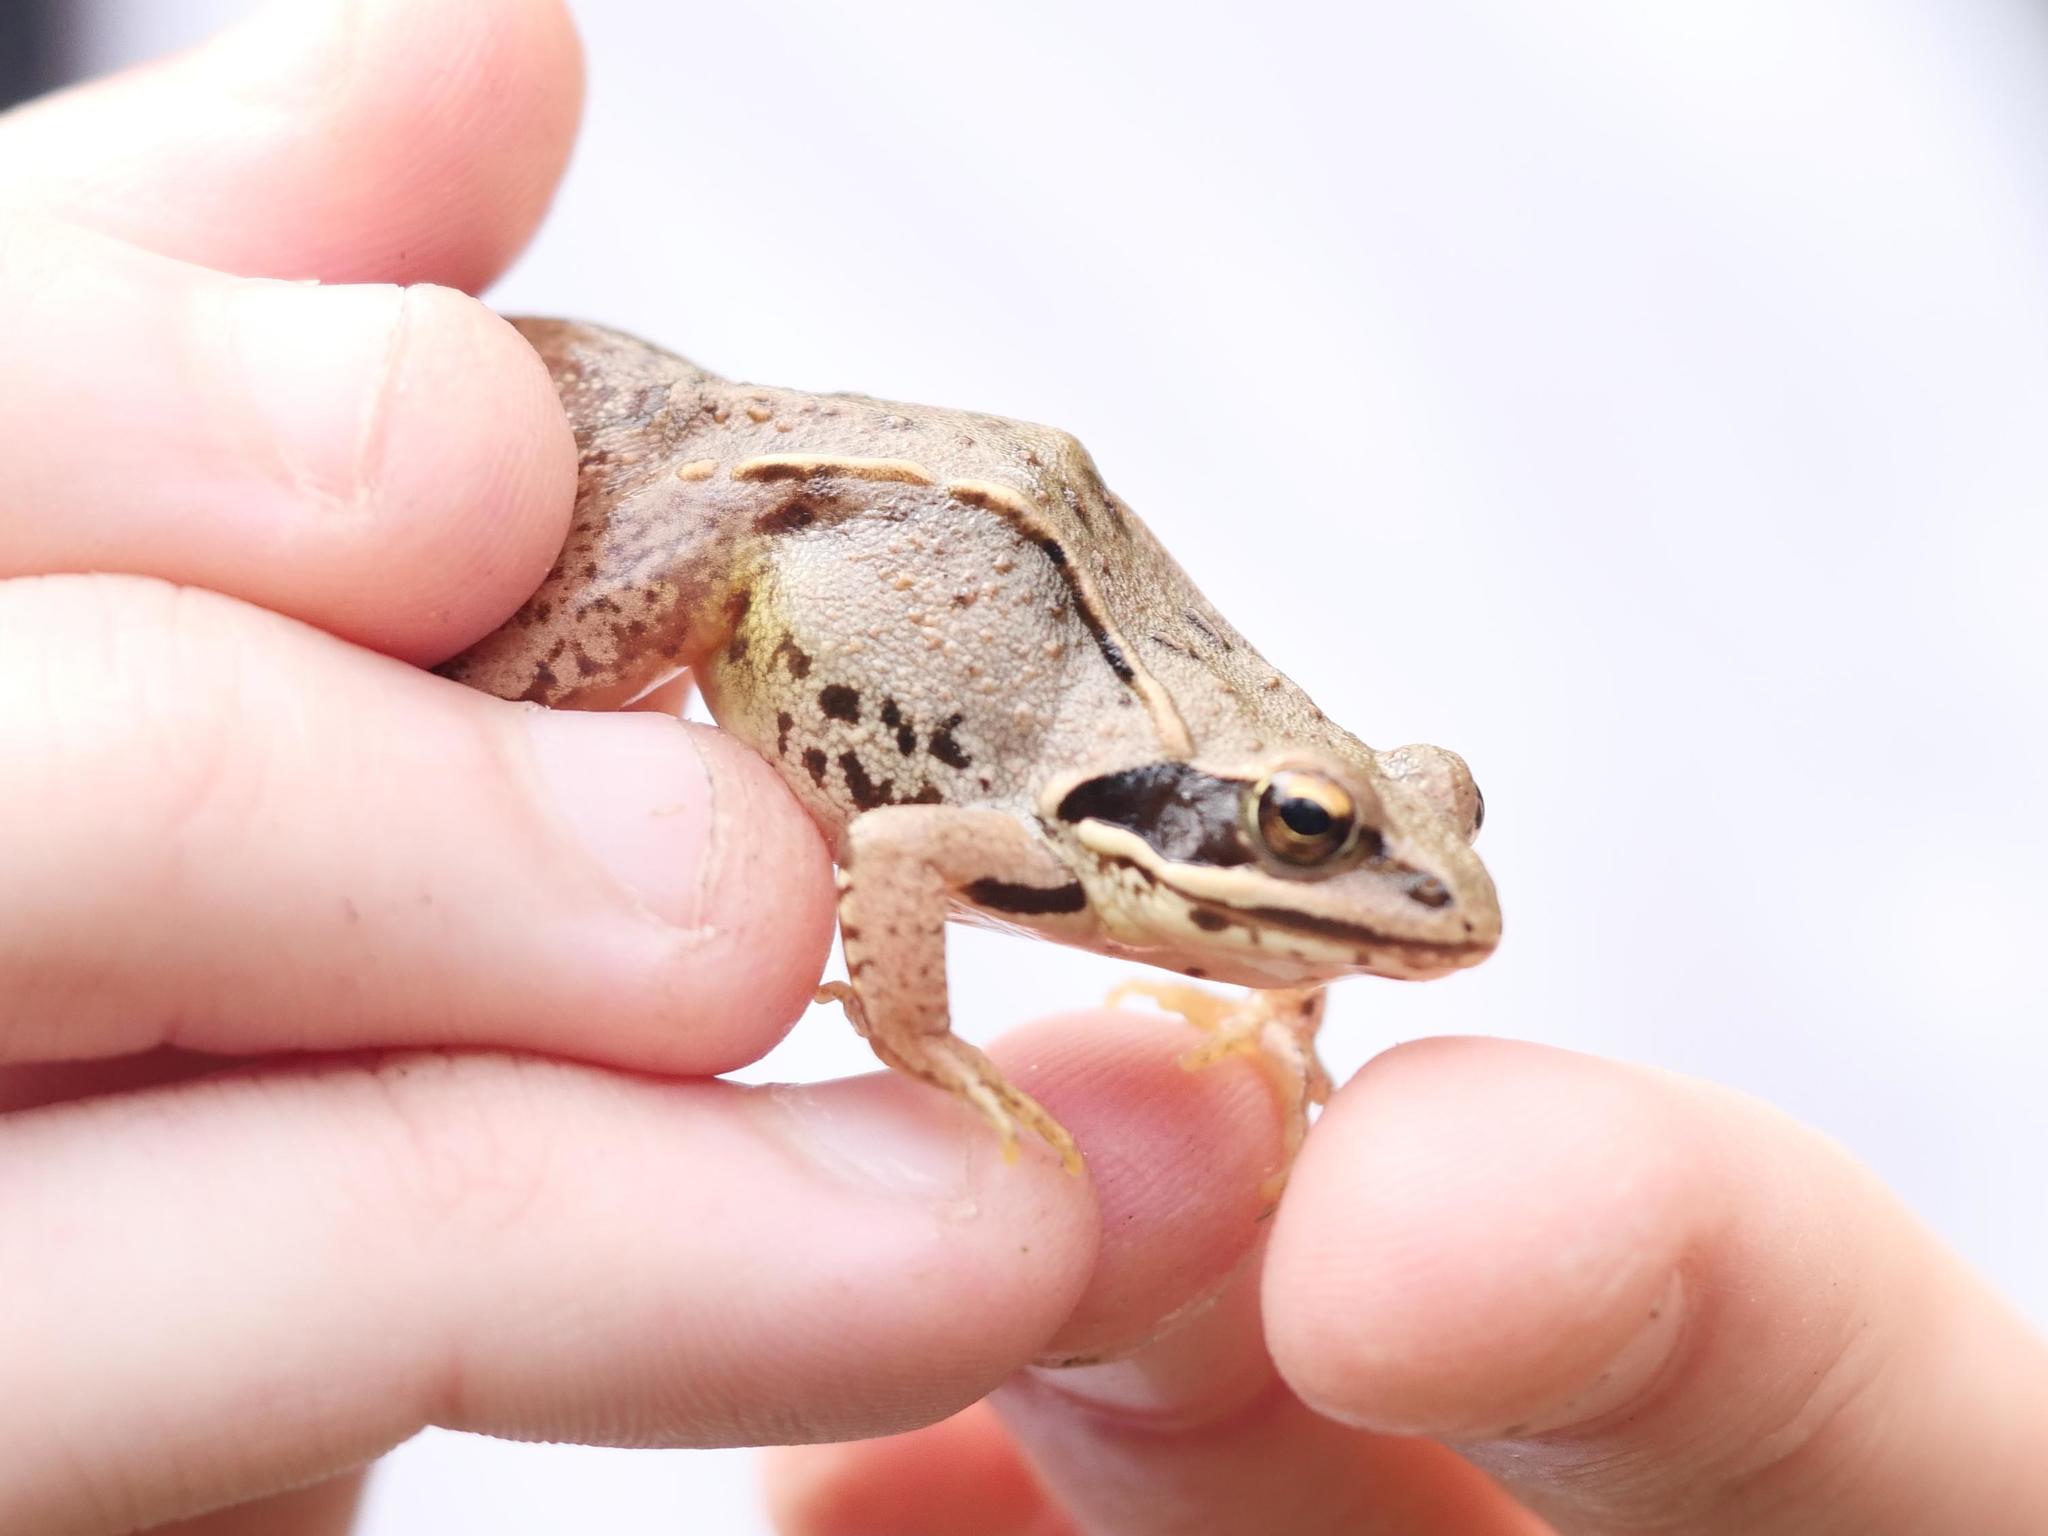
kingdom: Animalia
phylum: Chordata
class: Amphibia
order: Anura
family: Ranidae
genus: Rana
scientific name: Rana arvalis
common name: Moor frog
